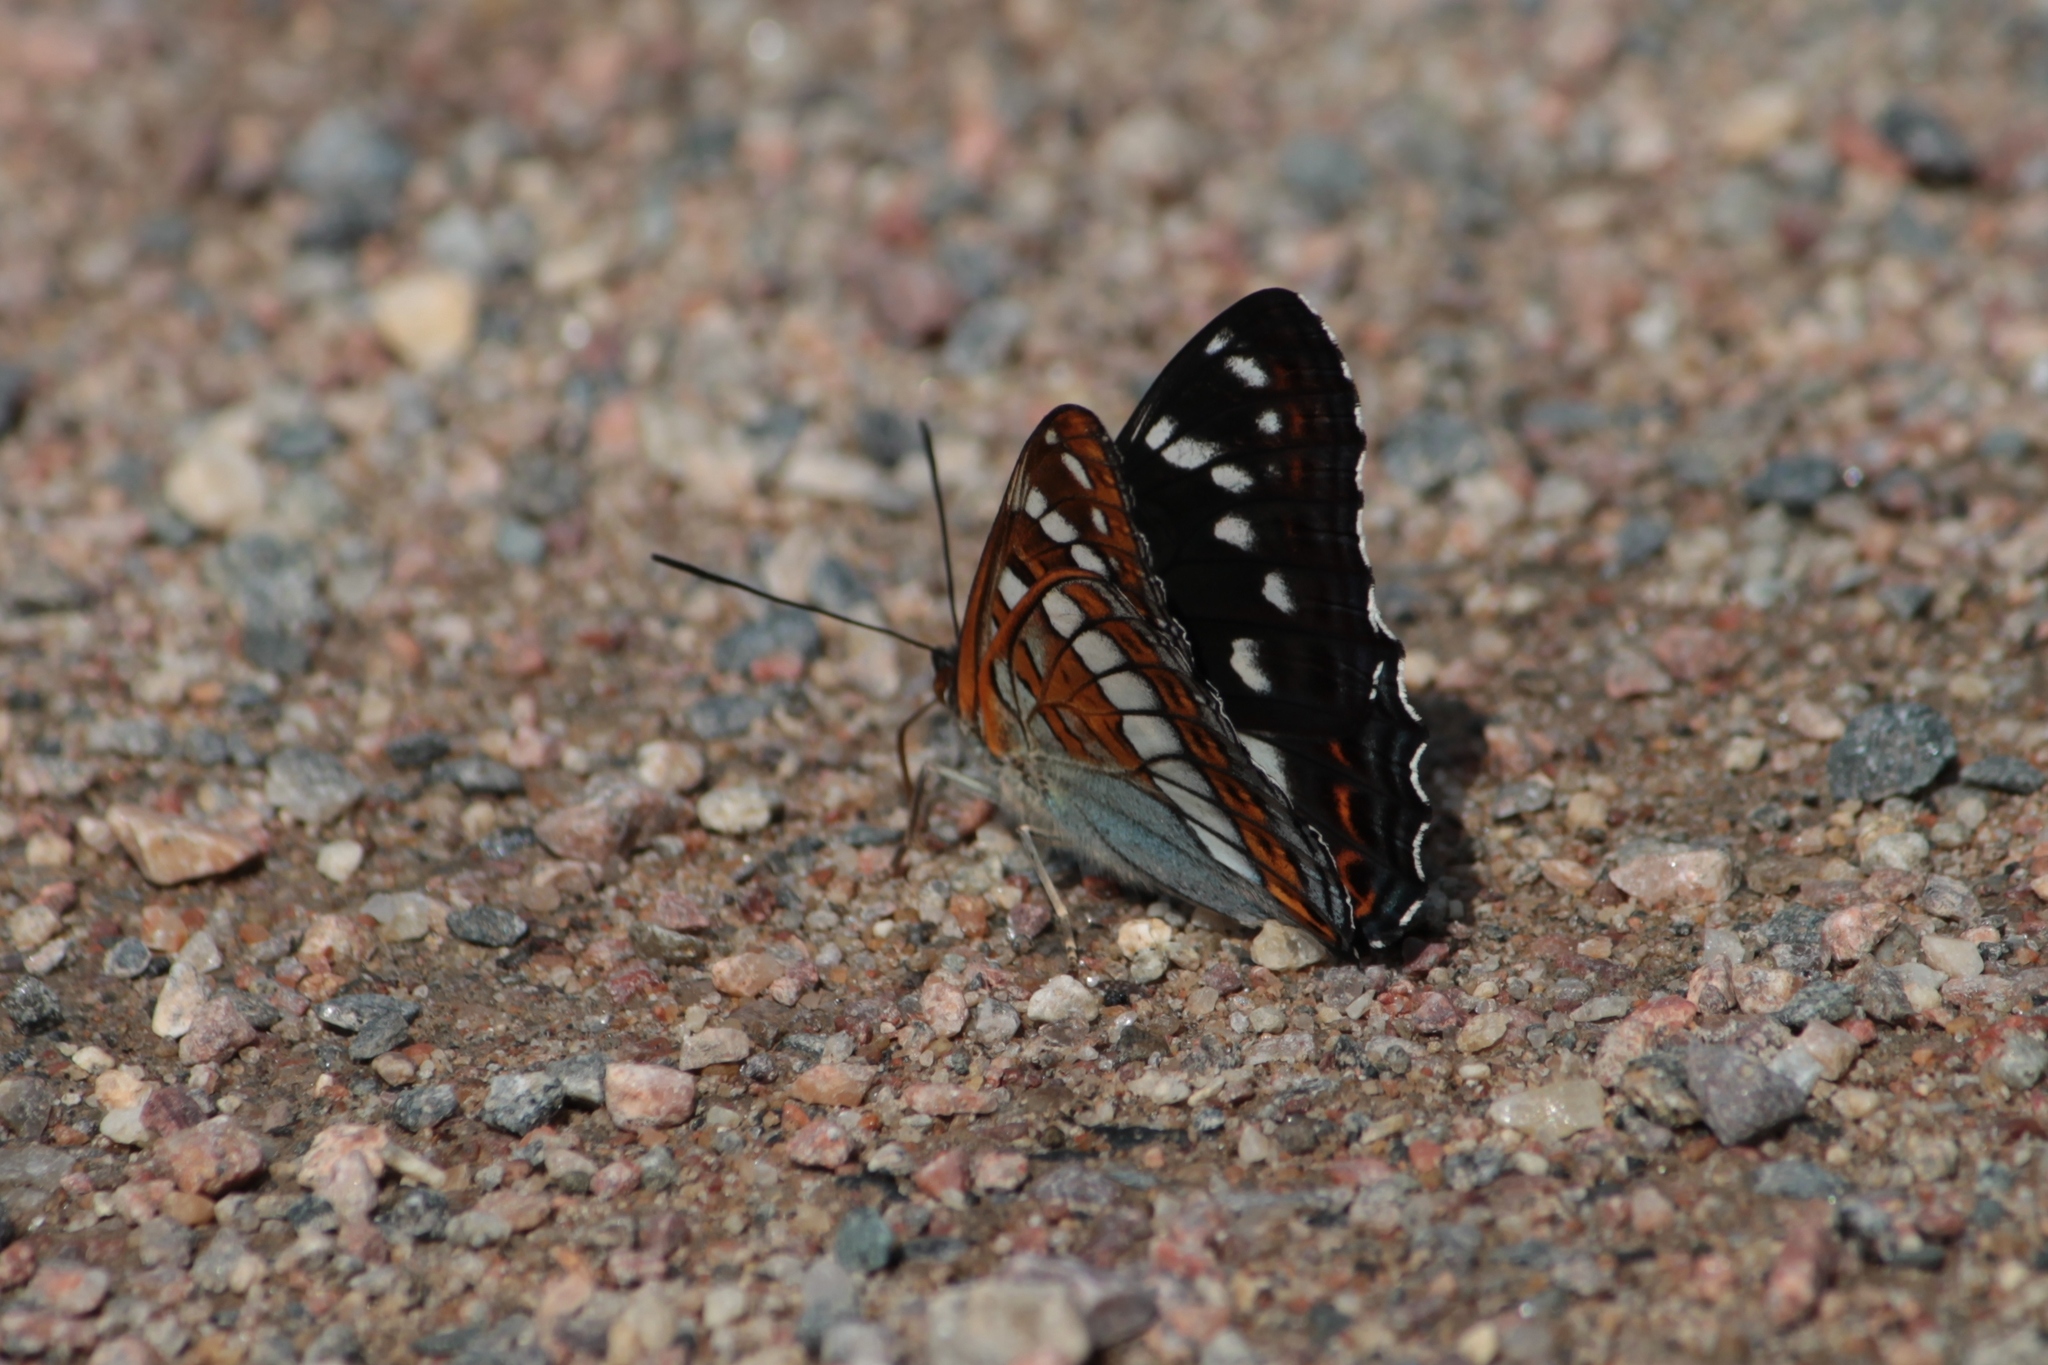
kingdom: Animalia
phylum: Arthropoda
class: Insecta
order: Lepidoptera
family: Nymphalidae
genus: Limenitis
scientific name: Limenitis populi
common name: Poplar admiral
